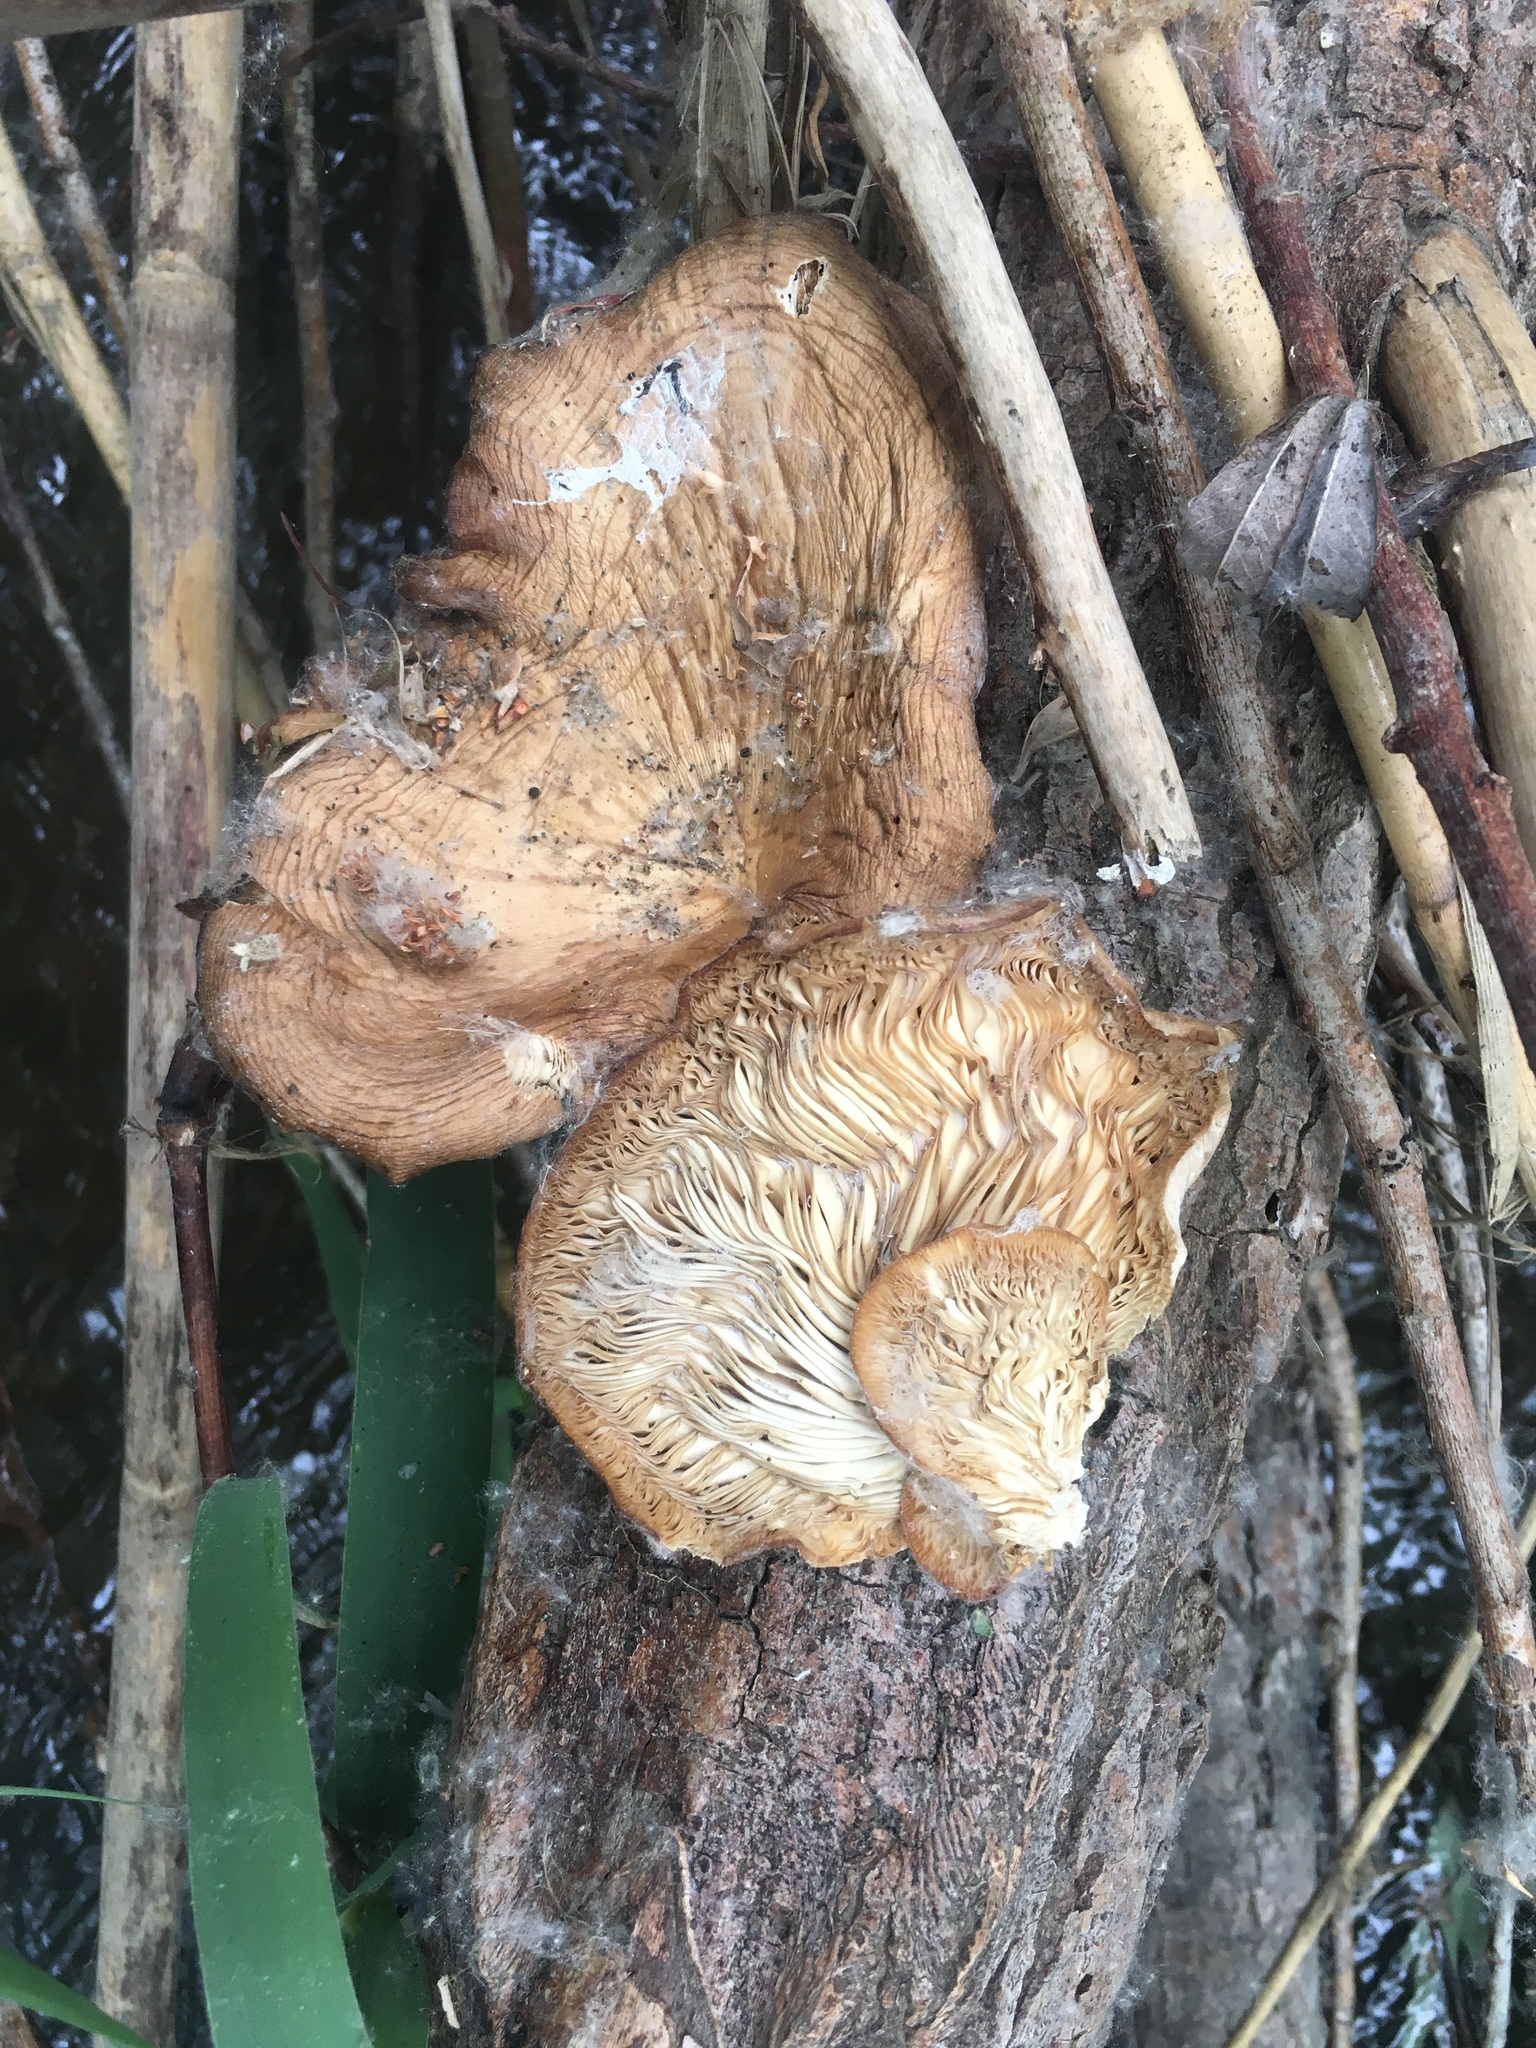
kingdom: Fungi
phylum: Basidiomycota
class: Agaricomycetes
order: Agaricales
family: Pleurotaceae
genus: Pleurotus
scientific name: Pleurotus ostreatus
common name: Oyster mushroom
